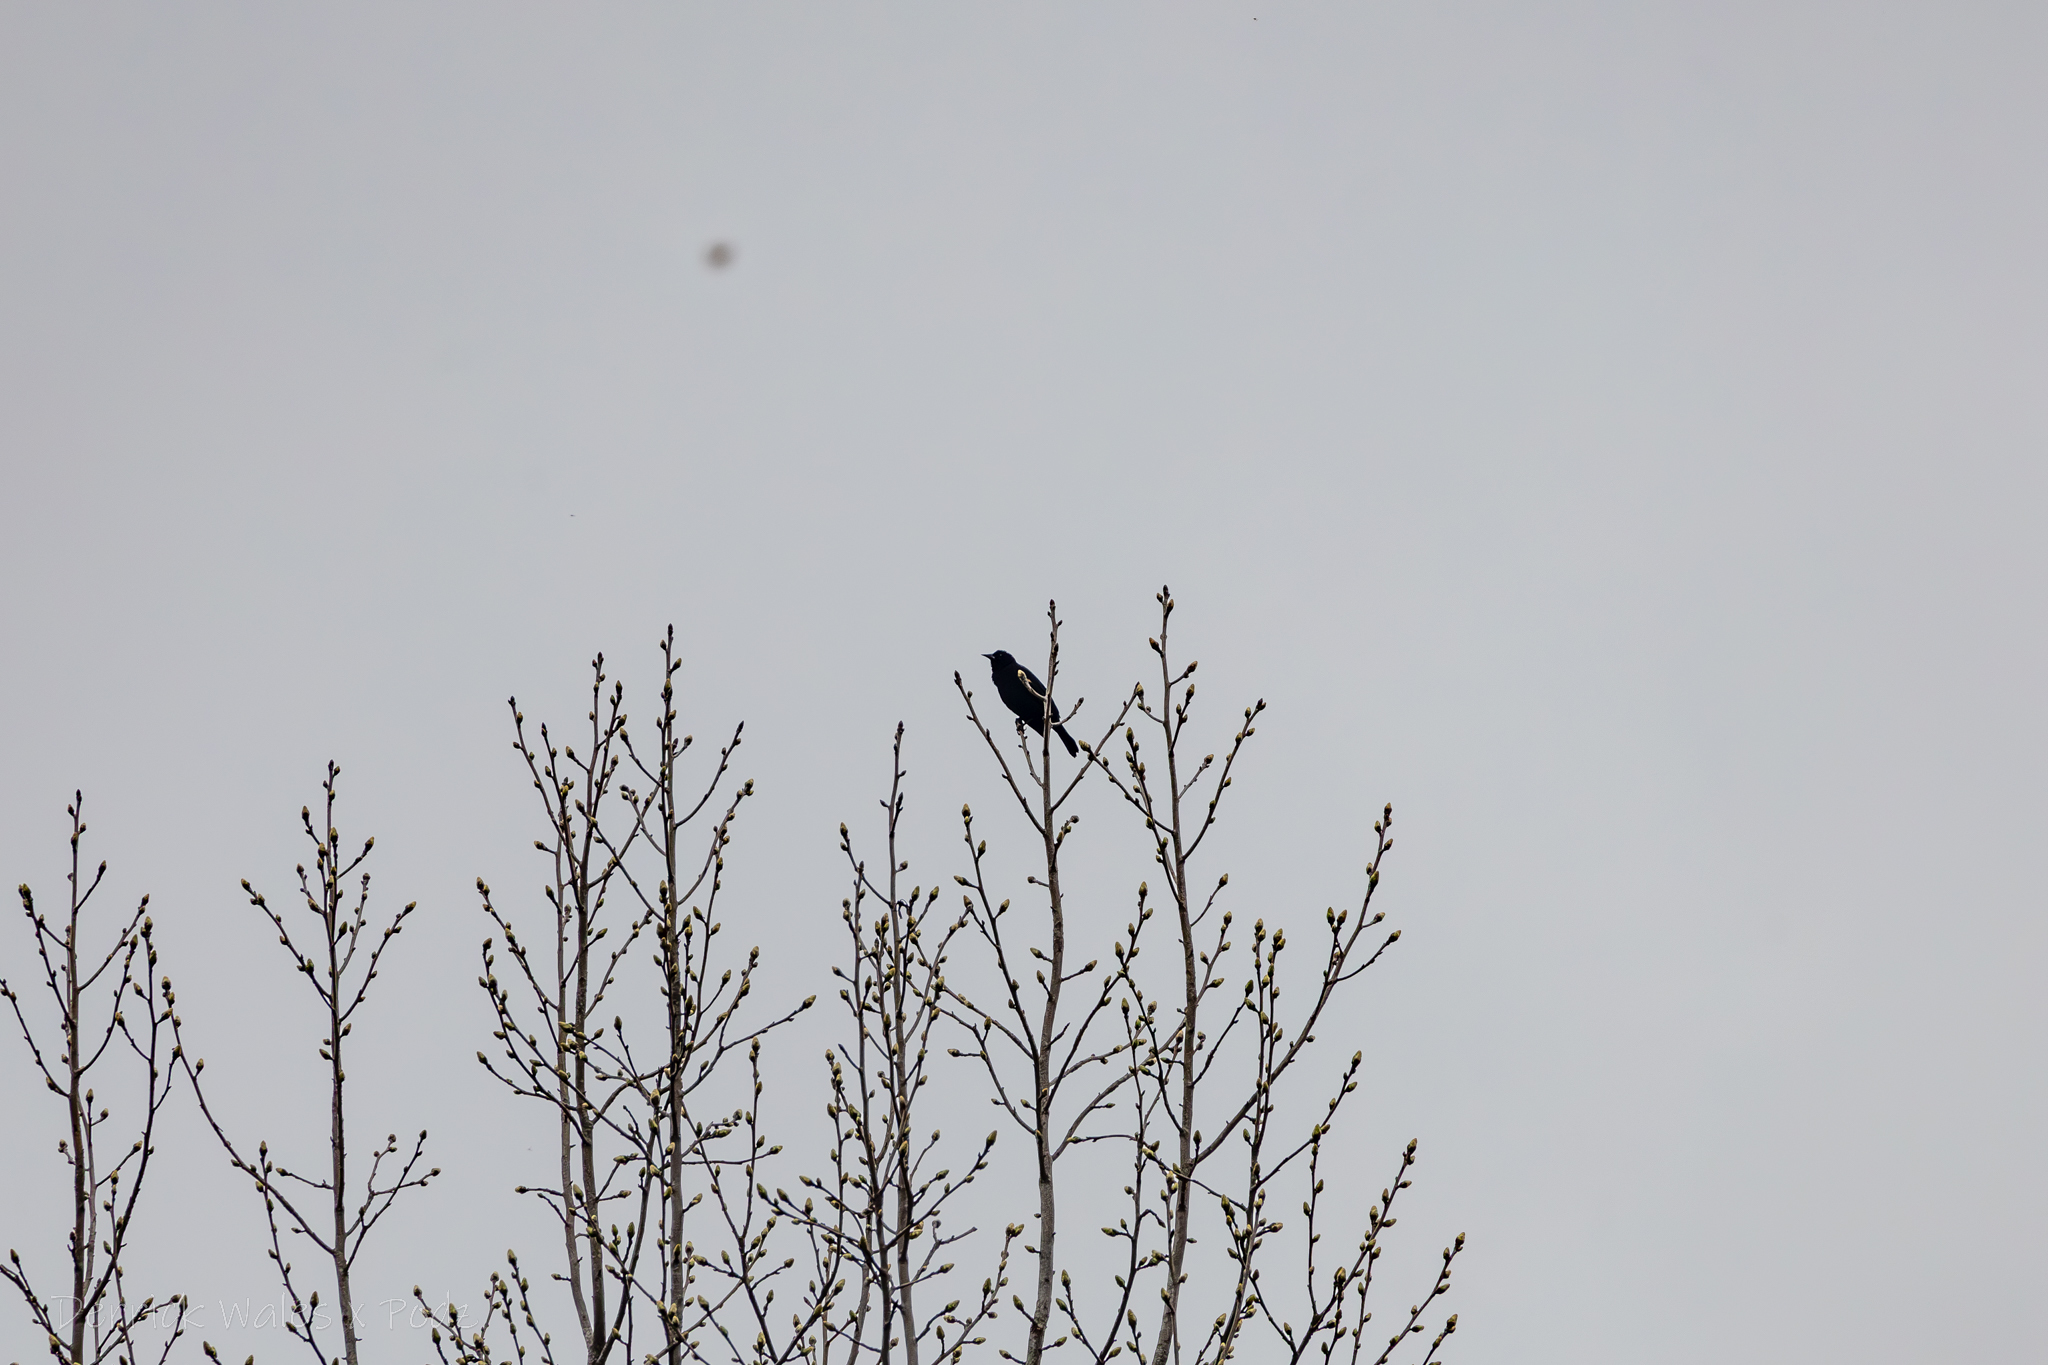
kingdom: Animalia
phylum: Chordata
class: Aves
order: Passeriformes
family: Icteridae
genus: Agelaius
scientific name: Agelaius phoeniceus
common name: Red-winged blackbird
